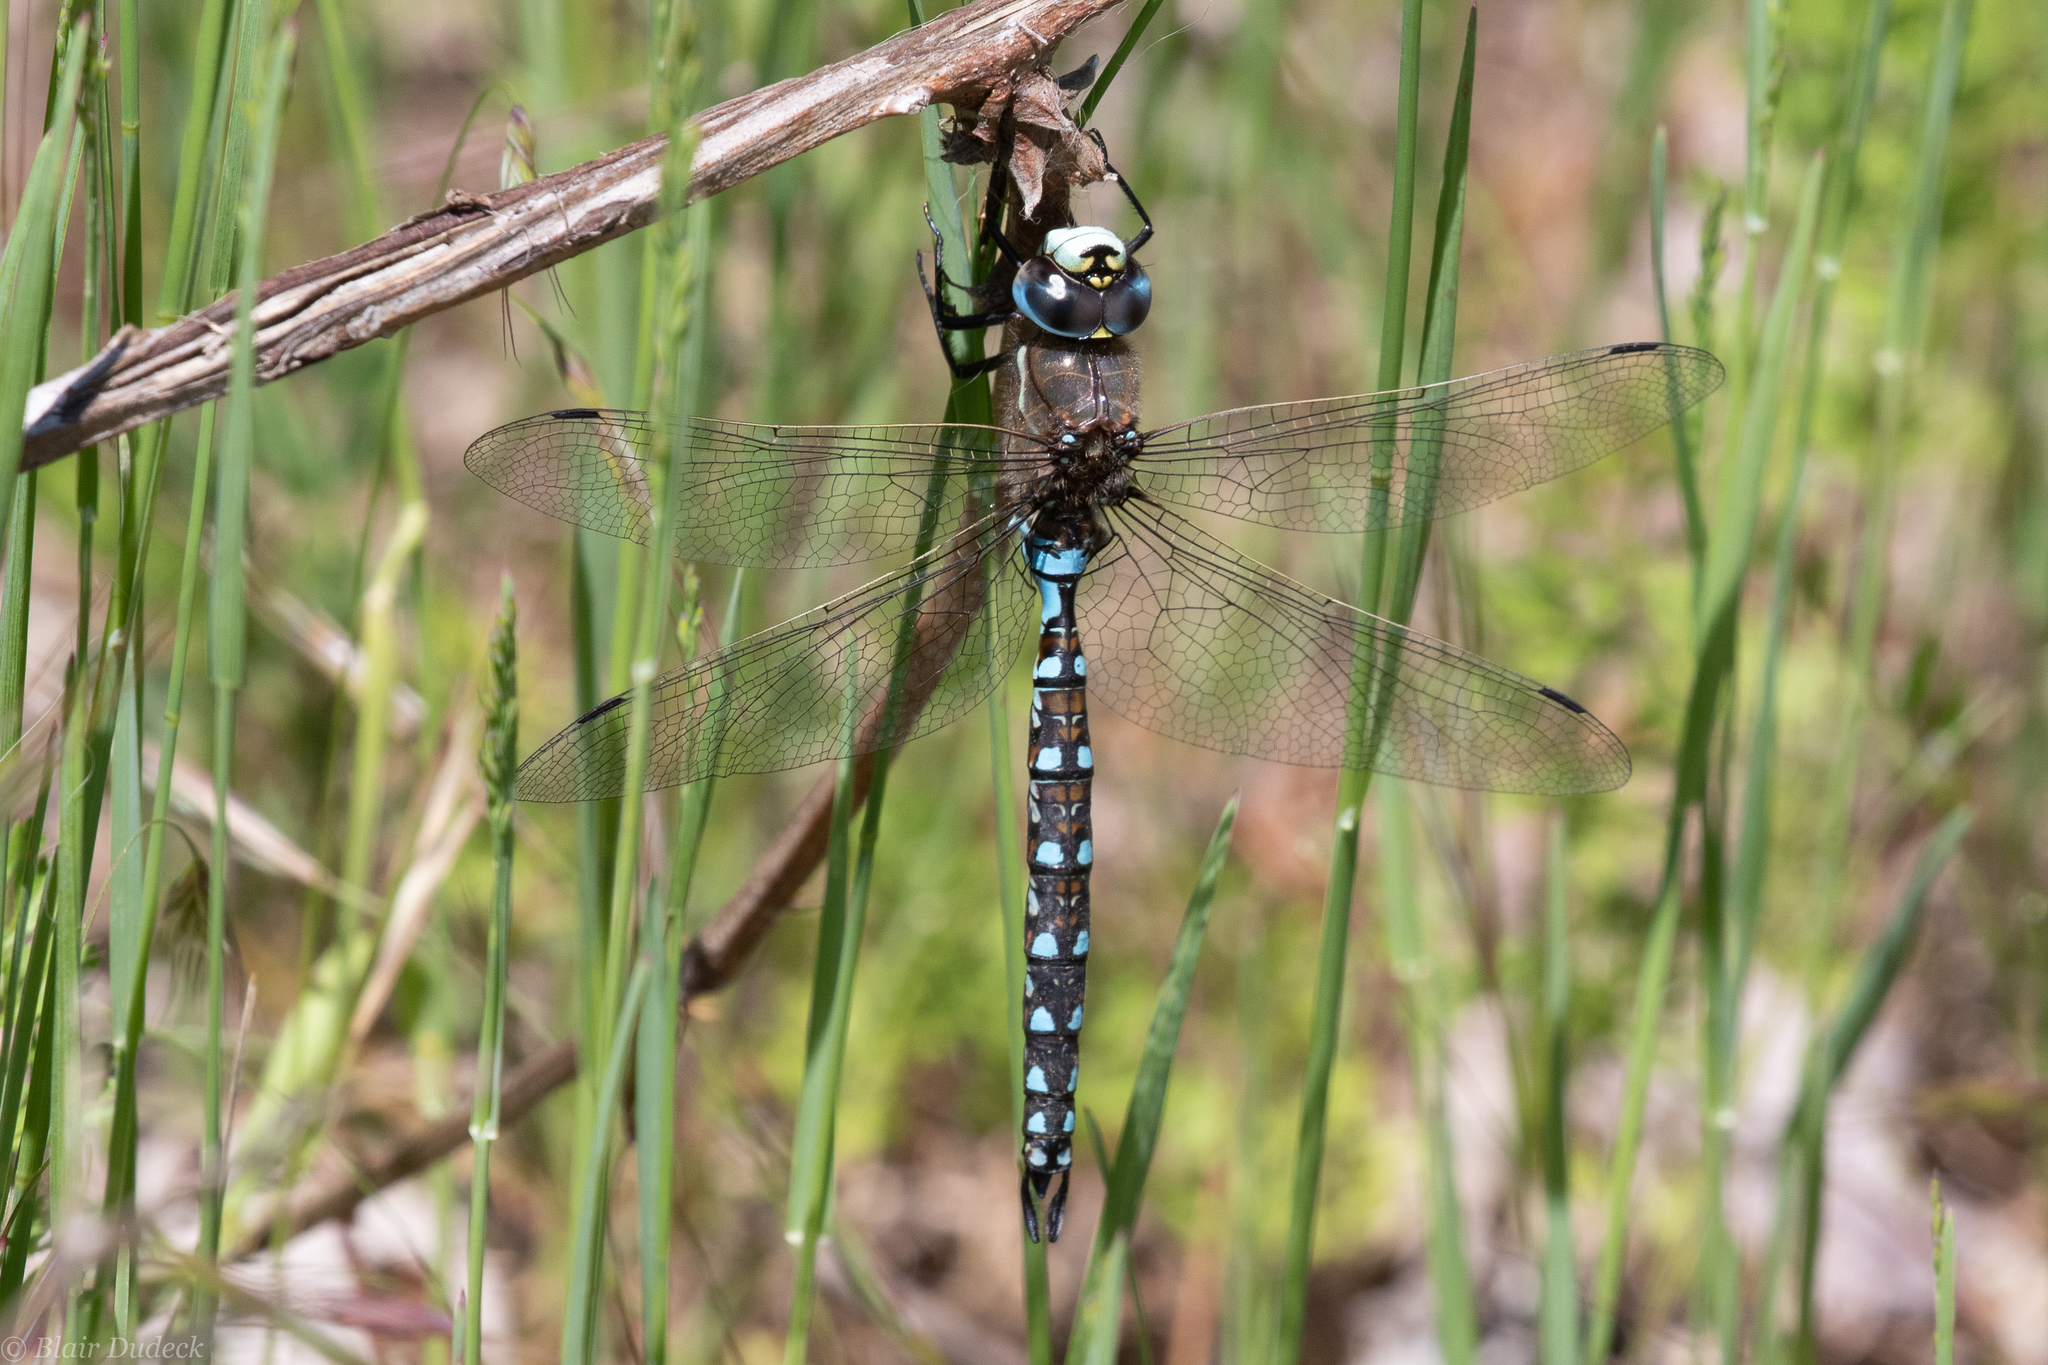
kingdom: Animalia
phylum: Arthropoda
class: Insecta
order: Odonata
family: Aeshnidae
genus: Rhionaeschna
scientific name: Rhionaeschna californica
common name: California darner
